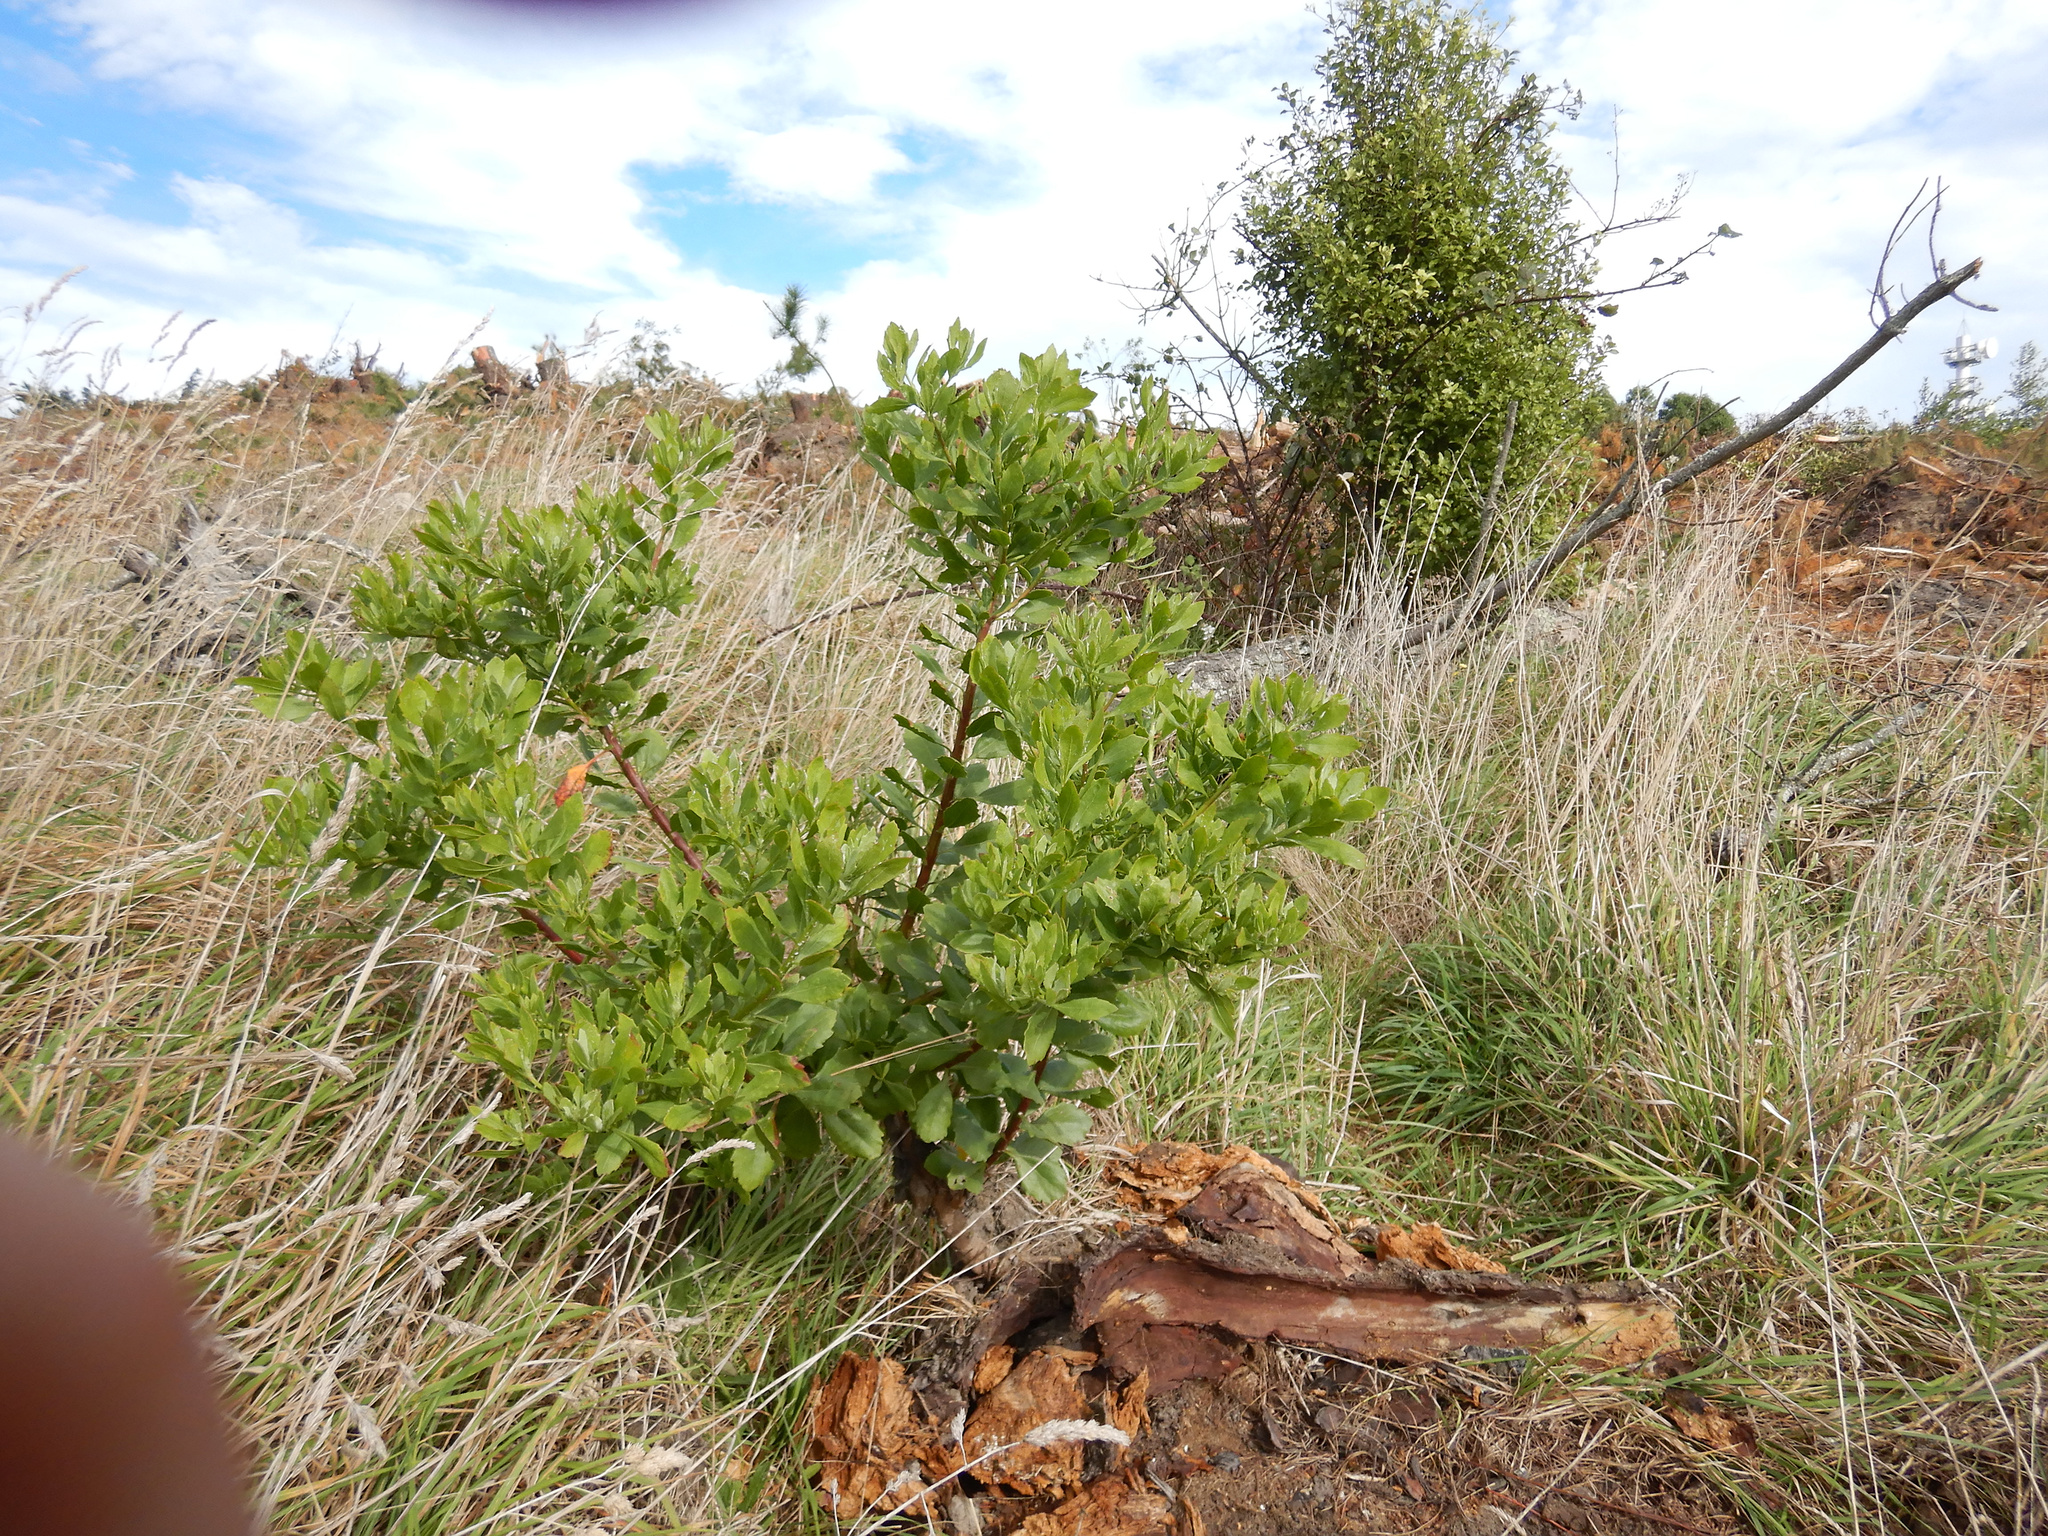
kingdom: Plantae
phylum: Tracheophyta
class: Magnoliopsida
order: Asterales
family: Asteraceae
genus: Osteospermum
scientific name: Osteospermum moniliferum
